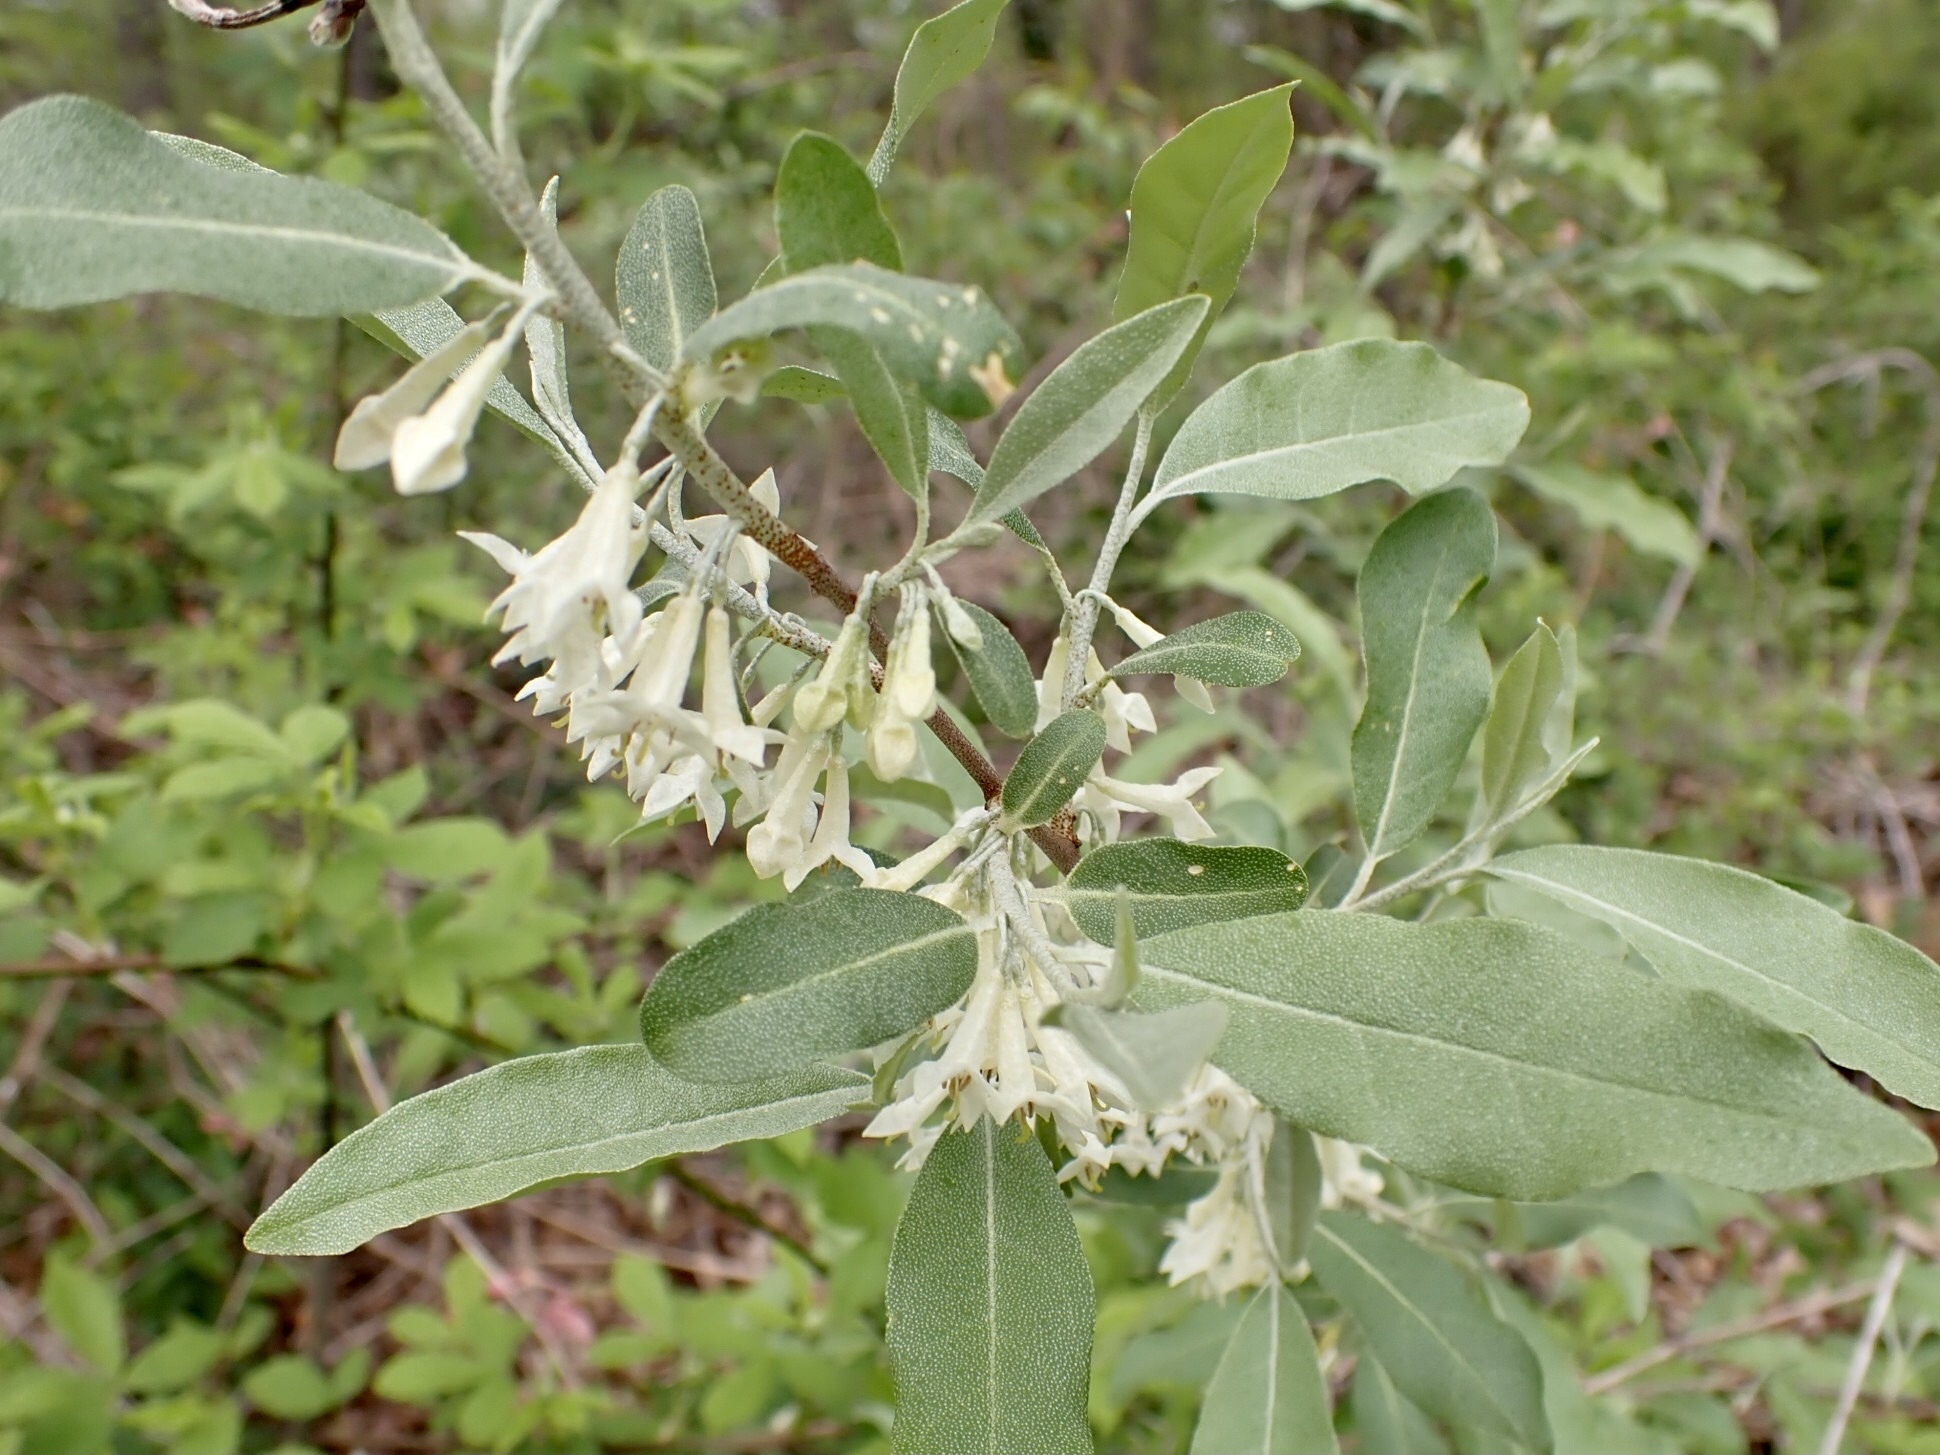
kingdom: Plantae
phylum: Tracheophyta
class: Magnoliopsida
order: Rosales
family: Elaeagnaceae
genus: Elaeagnus
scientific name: Elaeagnus umbellata
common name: Autumn olive
